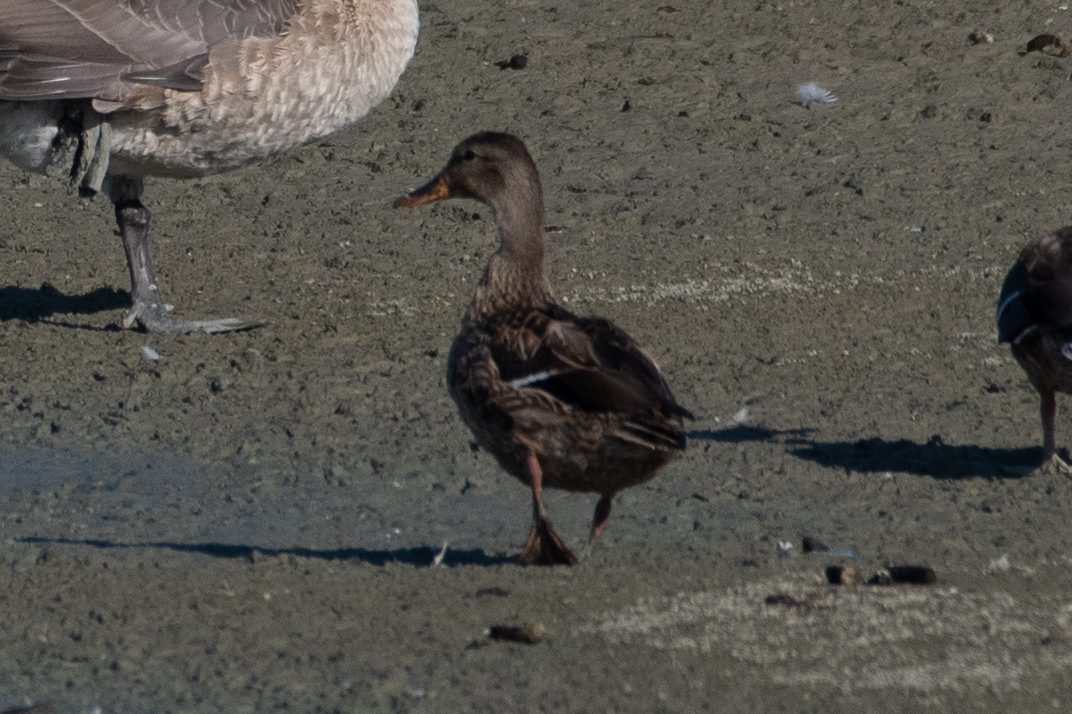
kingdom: Animalia
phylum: Chordata
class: Aves
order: Anseriformes
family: Anatidae
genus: Anas
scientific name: Anas platyrhynchos
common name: Mallard
